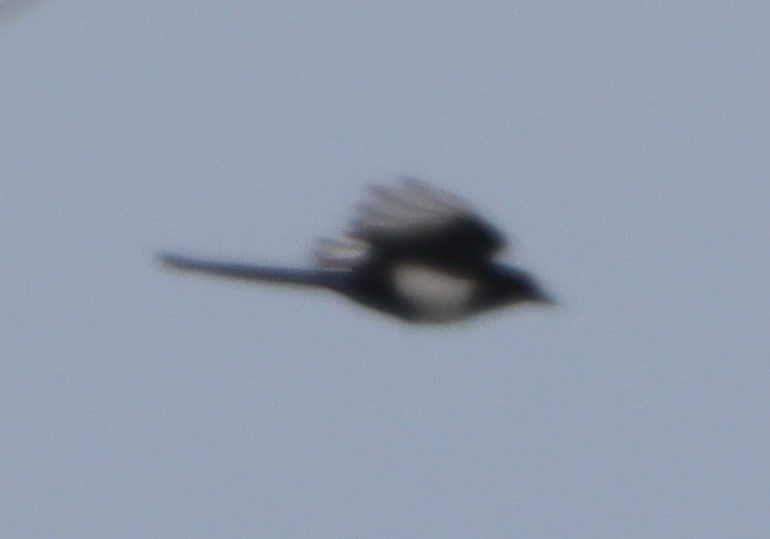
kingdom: Animalia
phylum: Chordata
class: Aves
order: Passeriformes
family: Corvidae
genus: Pica
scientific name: Pica hudsonia
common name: Black-billed magpie
